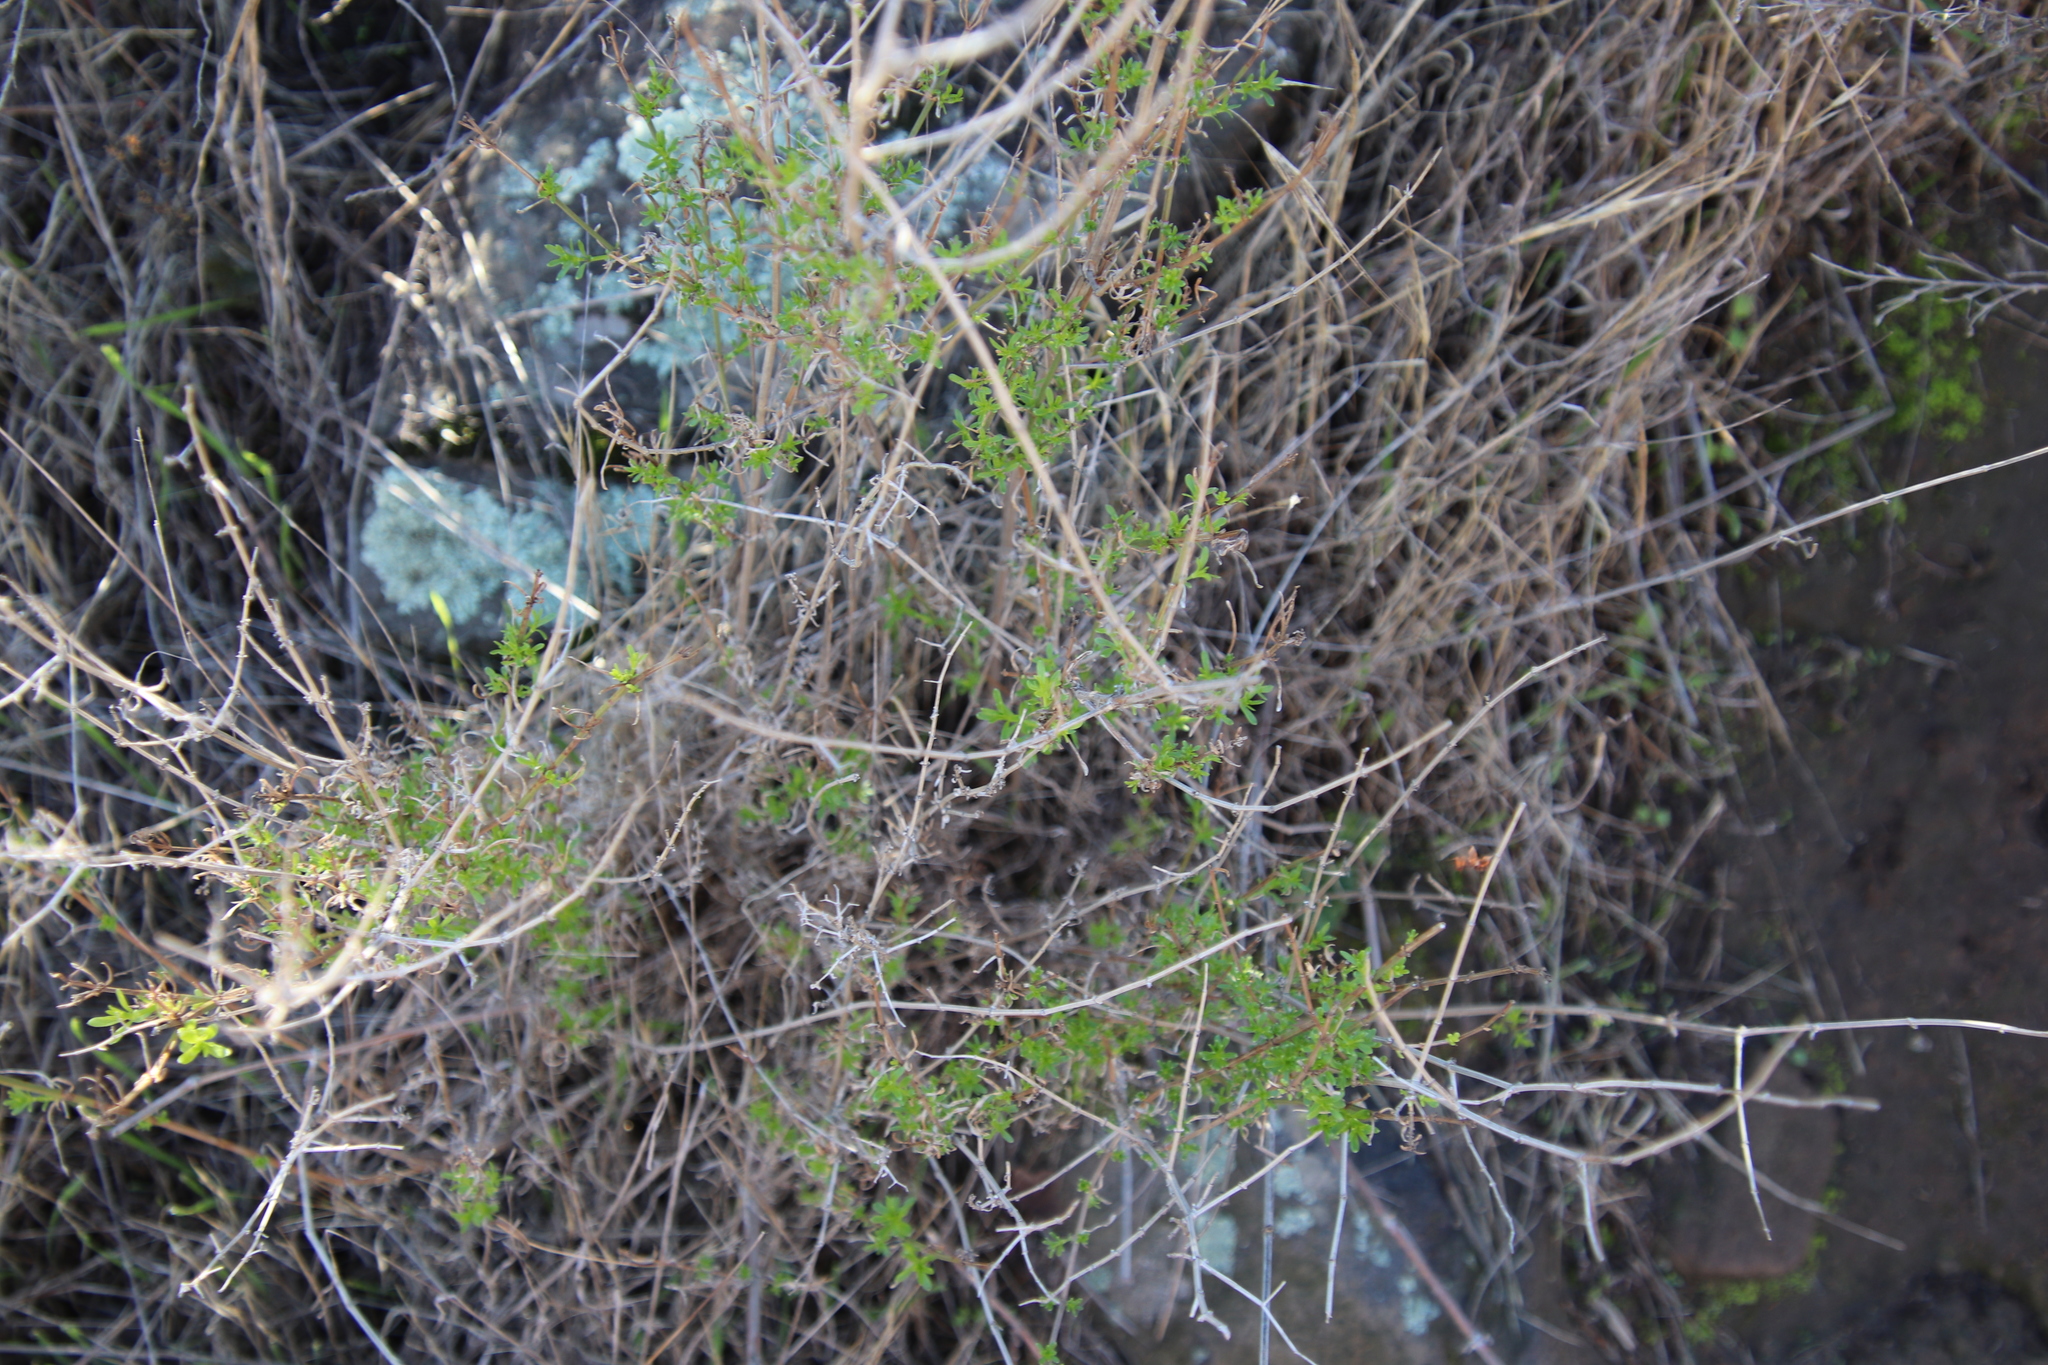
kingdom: Plantae
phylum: Tracheophyta
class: Magnoliopsida
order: Gentianales
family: Rubiaceae
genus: Galium
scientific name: Galium angustifolium
